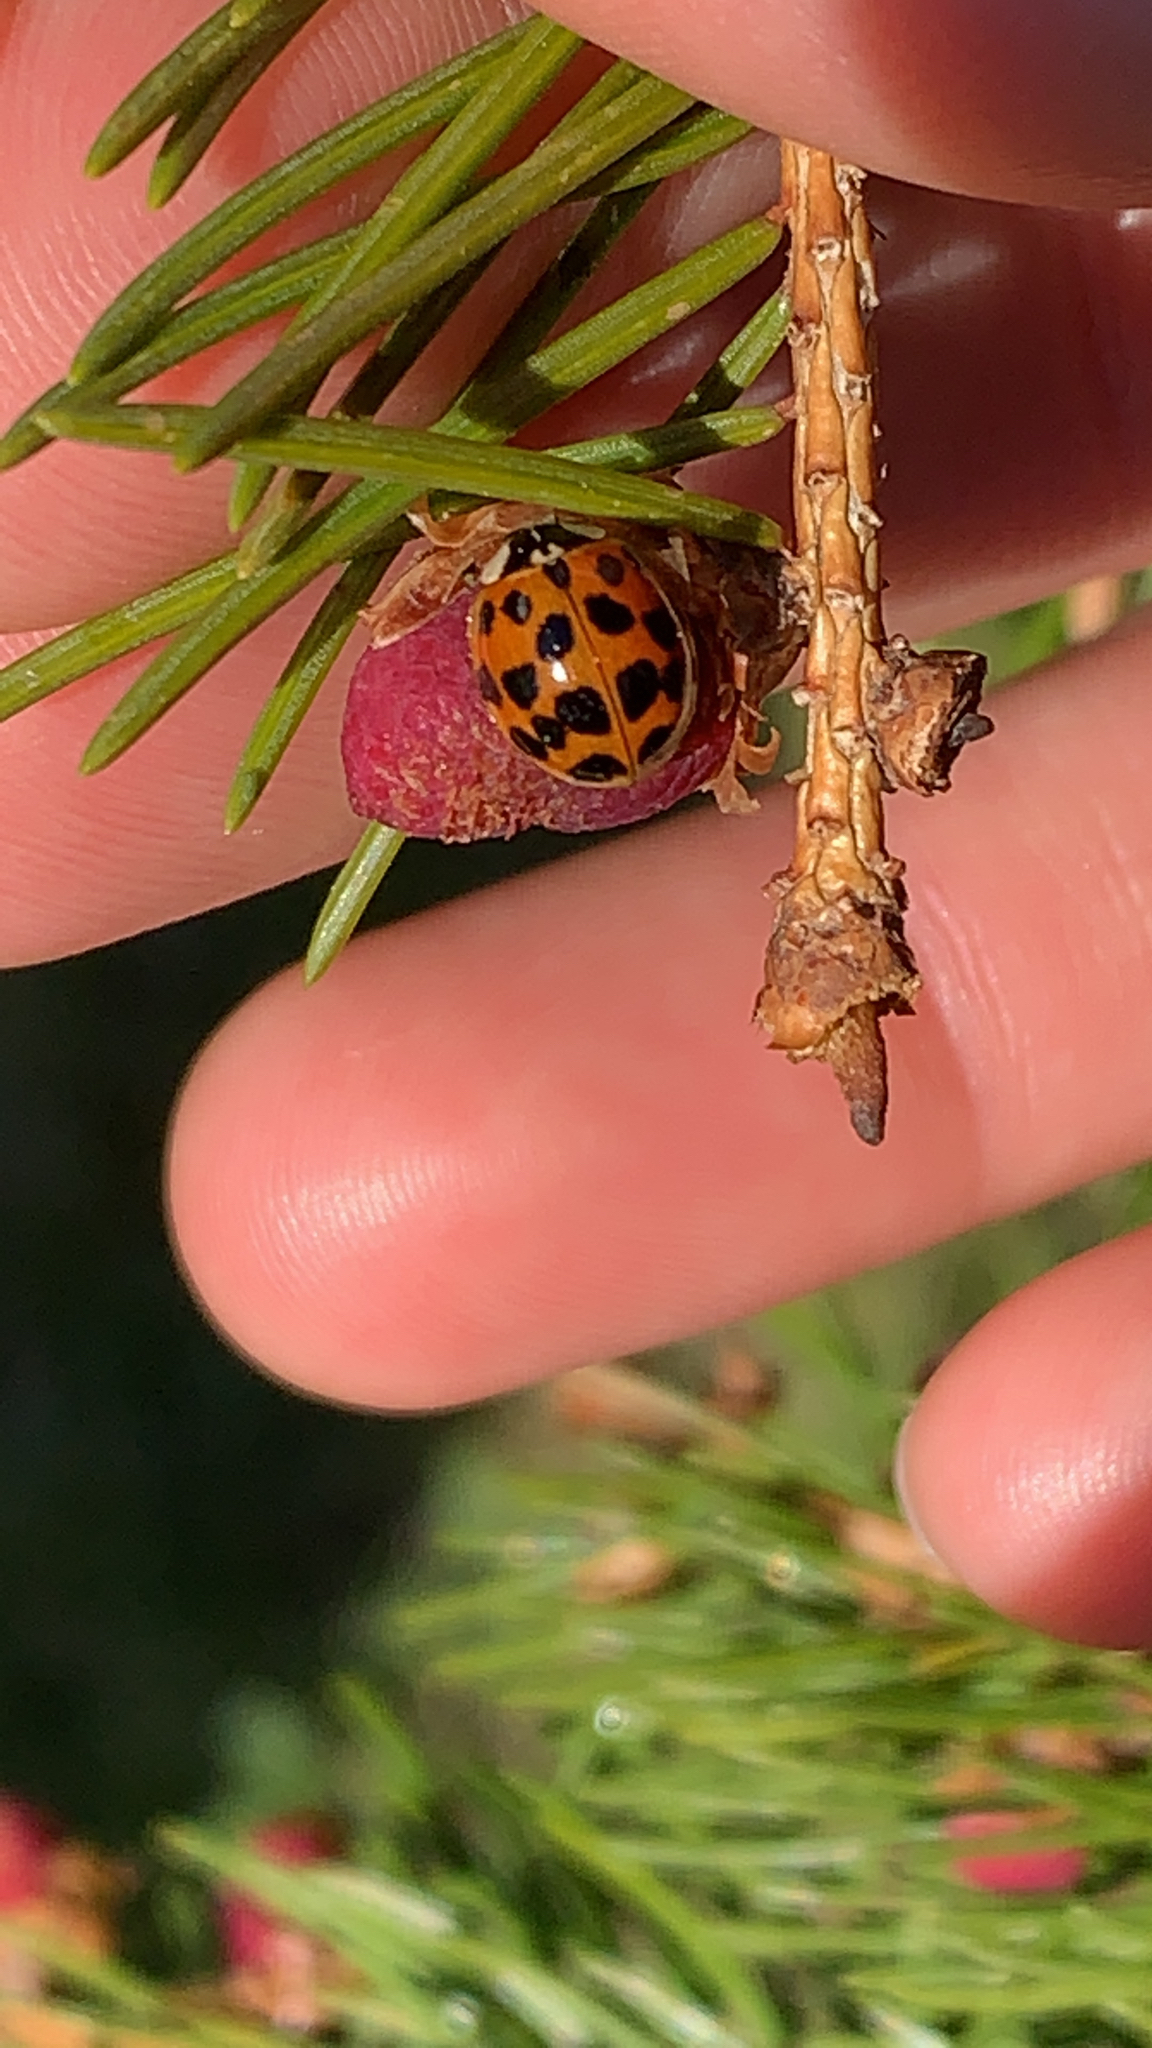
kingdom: Animalia
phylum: Arthropoda
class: Insecta
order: Coleoptera
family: Coccinellidae
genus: Harmonia
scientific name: Harmonia axyridis
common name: Harlequin ladybird
